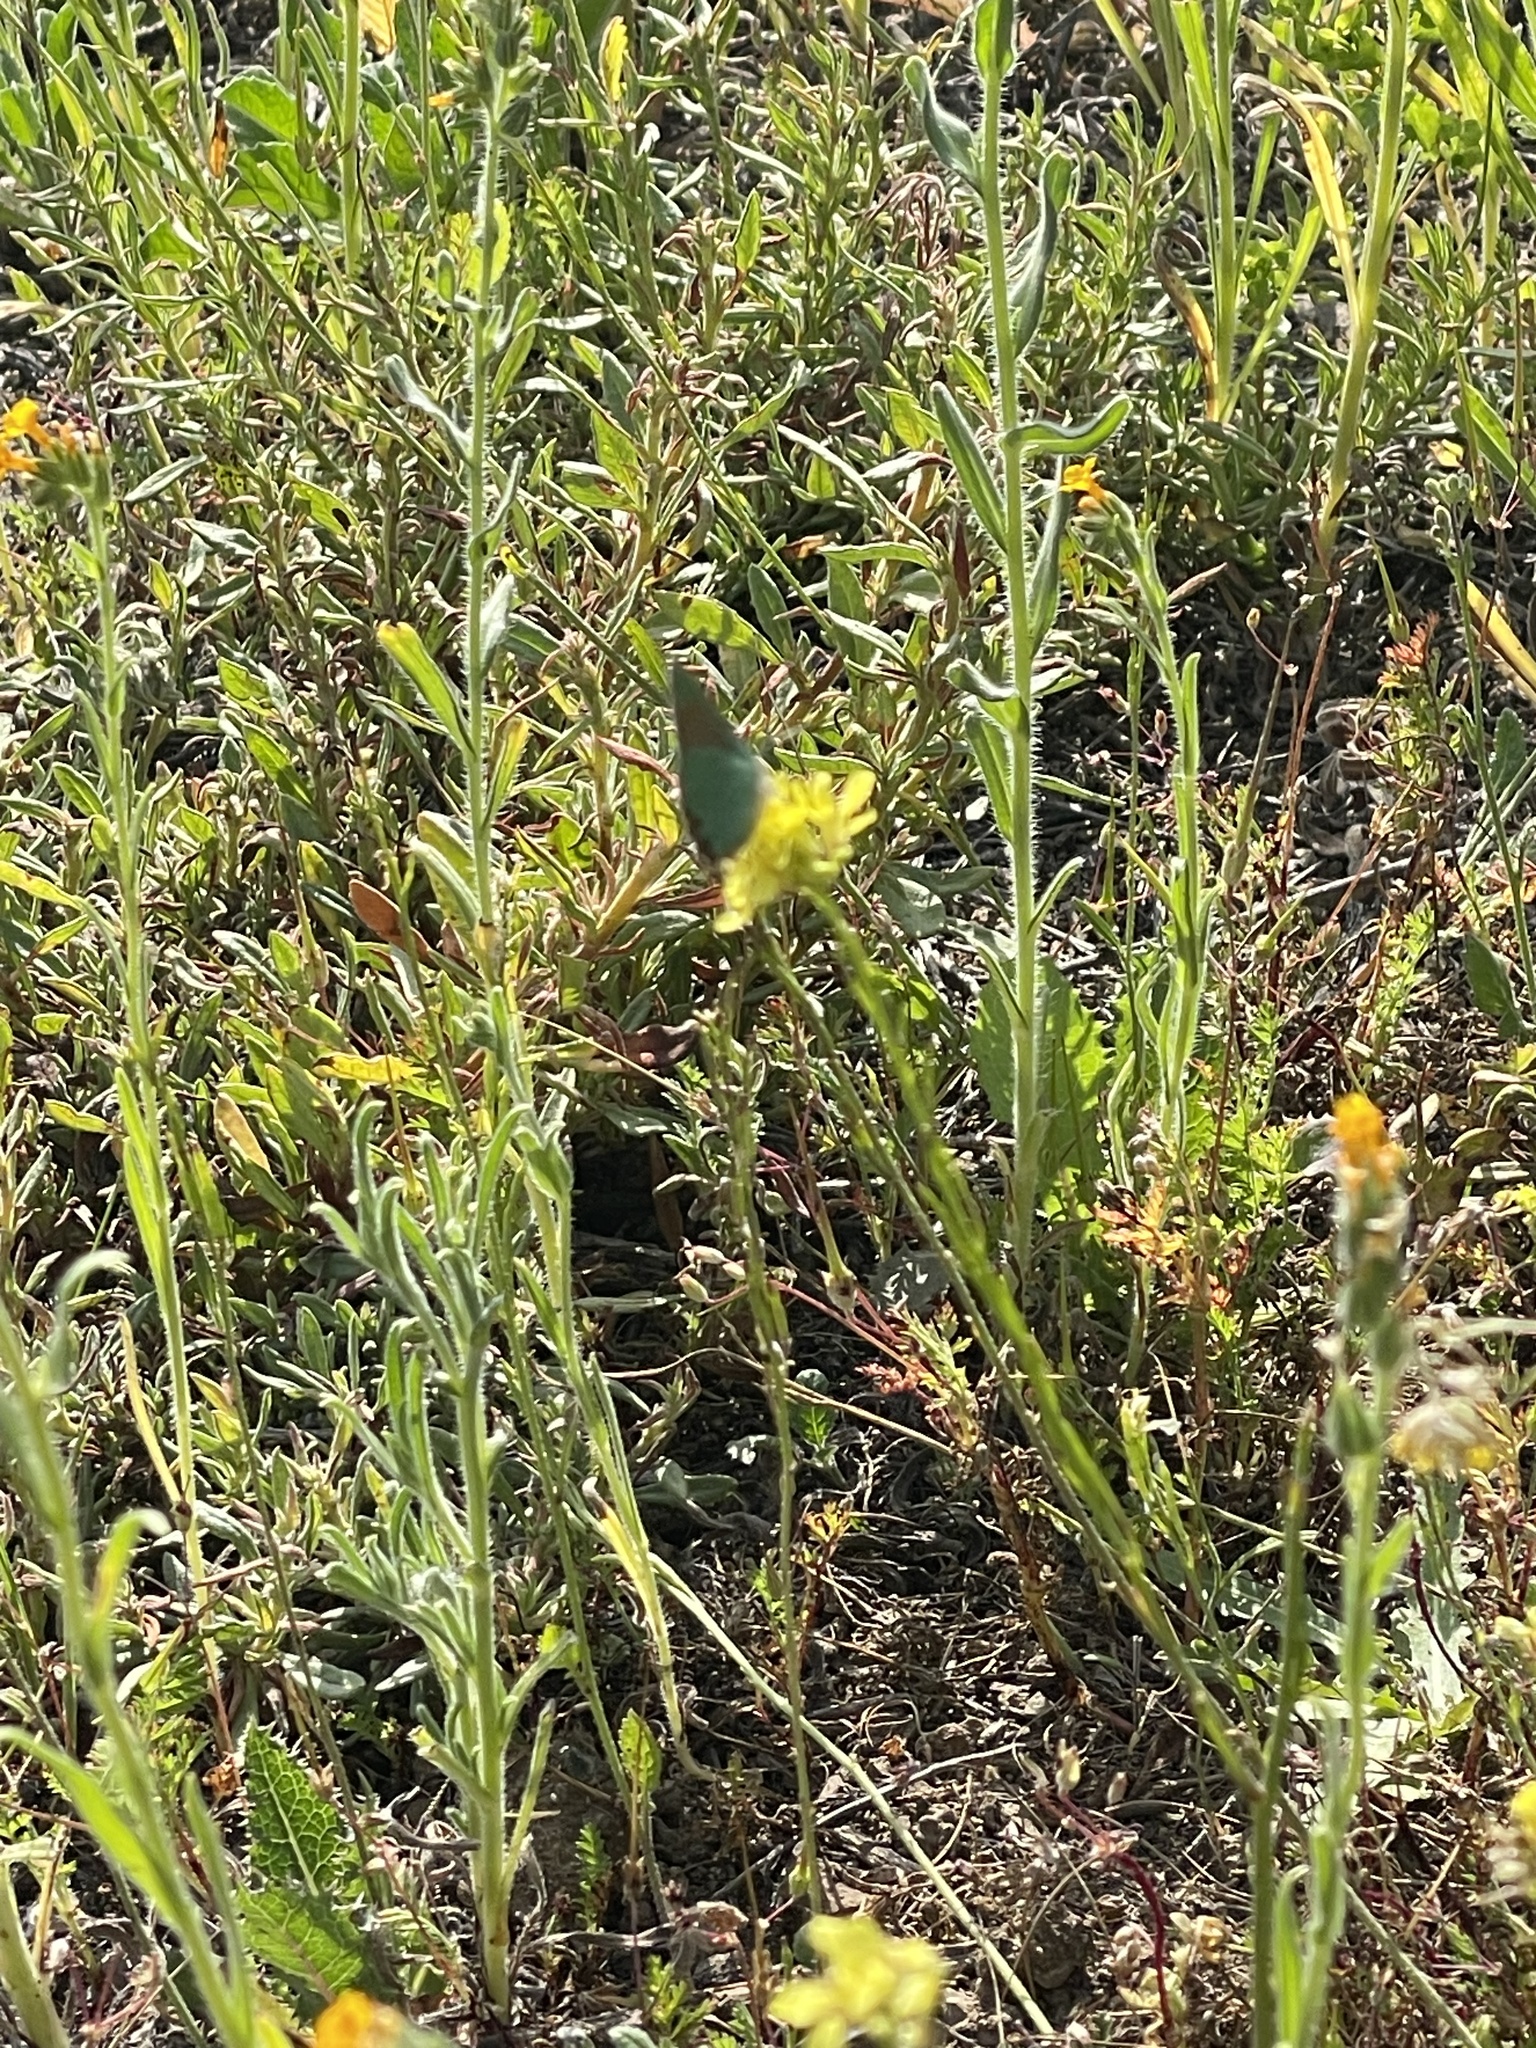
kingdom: Animalia
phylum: Arthropoda
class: Insecta
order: Lepidoptera
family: Lycaenidae
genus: Callophrys
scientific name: Callophrys dumetorum
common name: Bramble hairstreak
